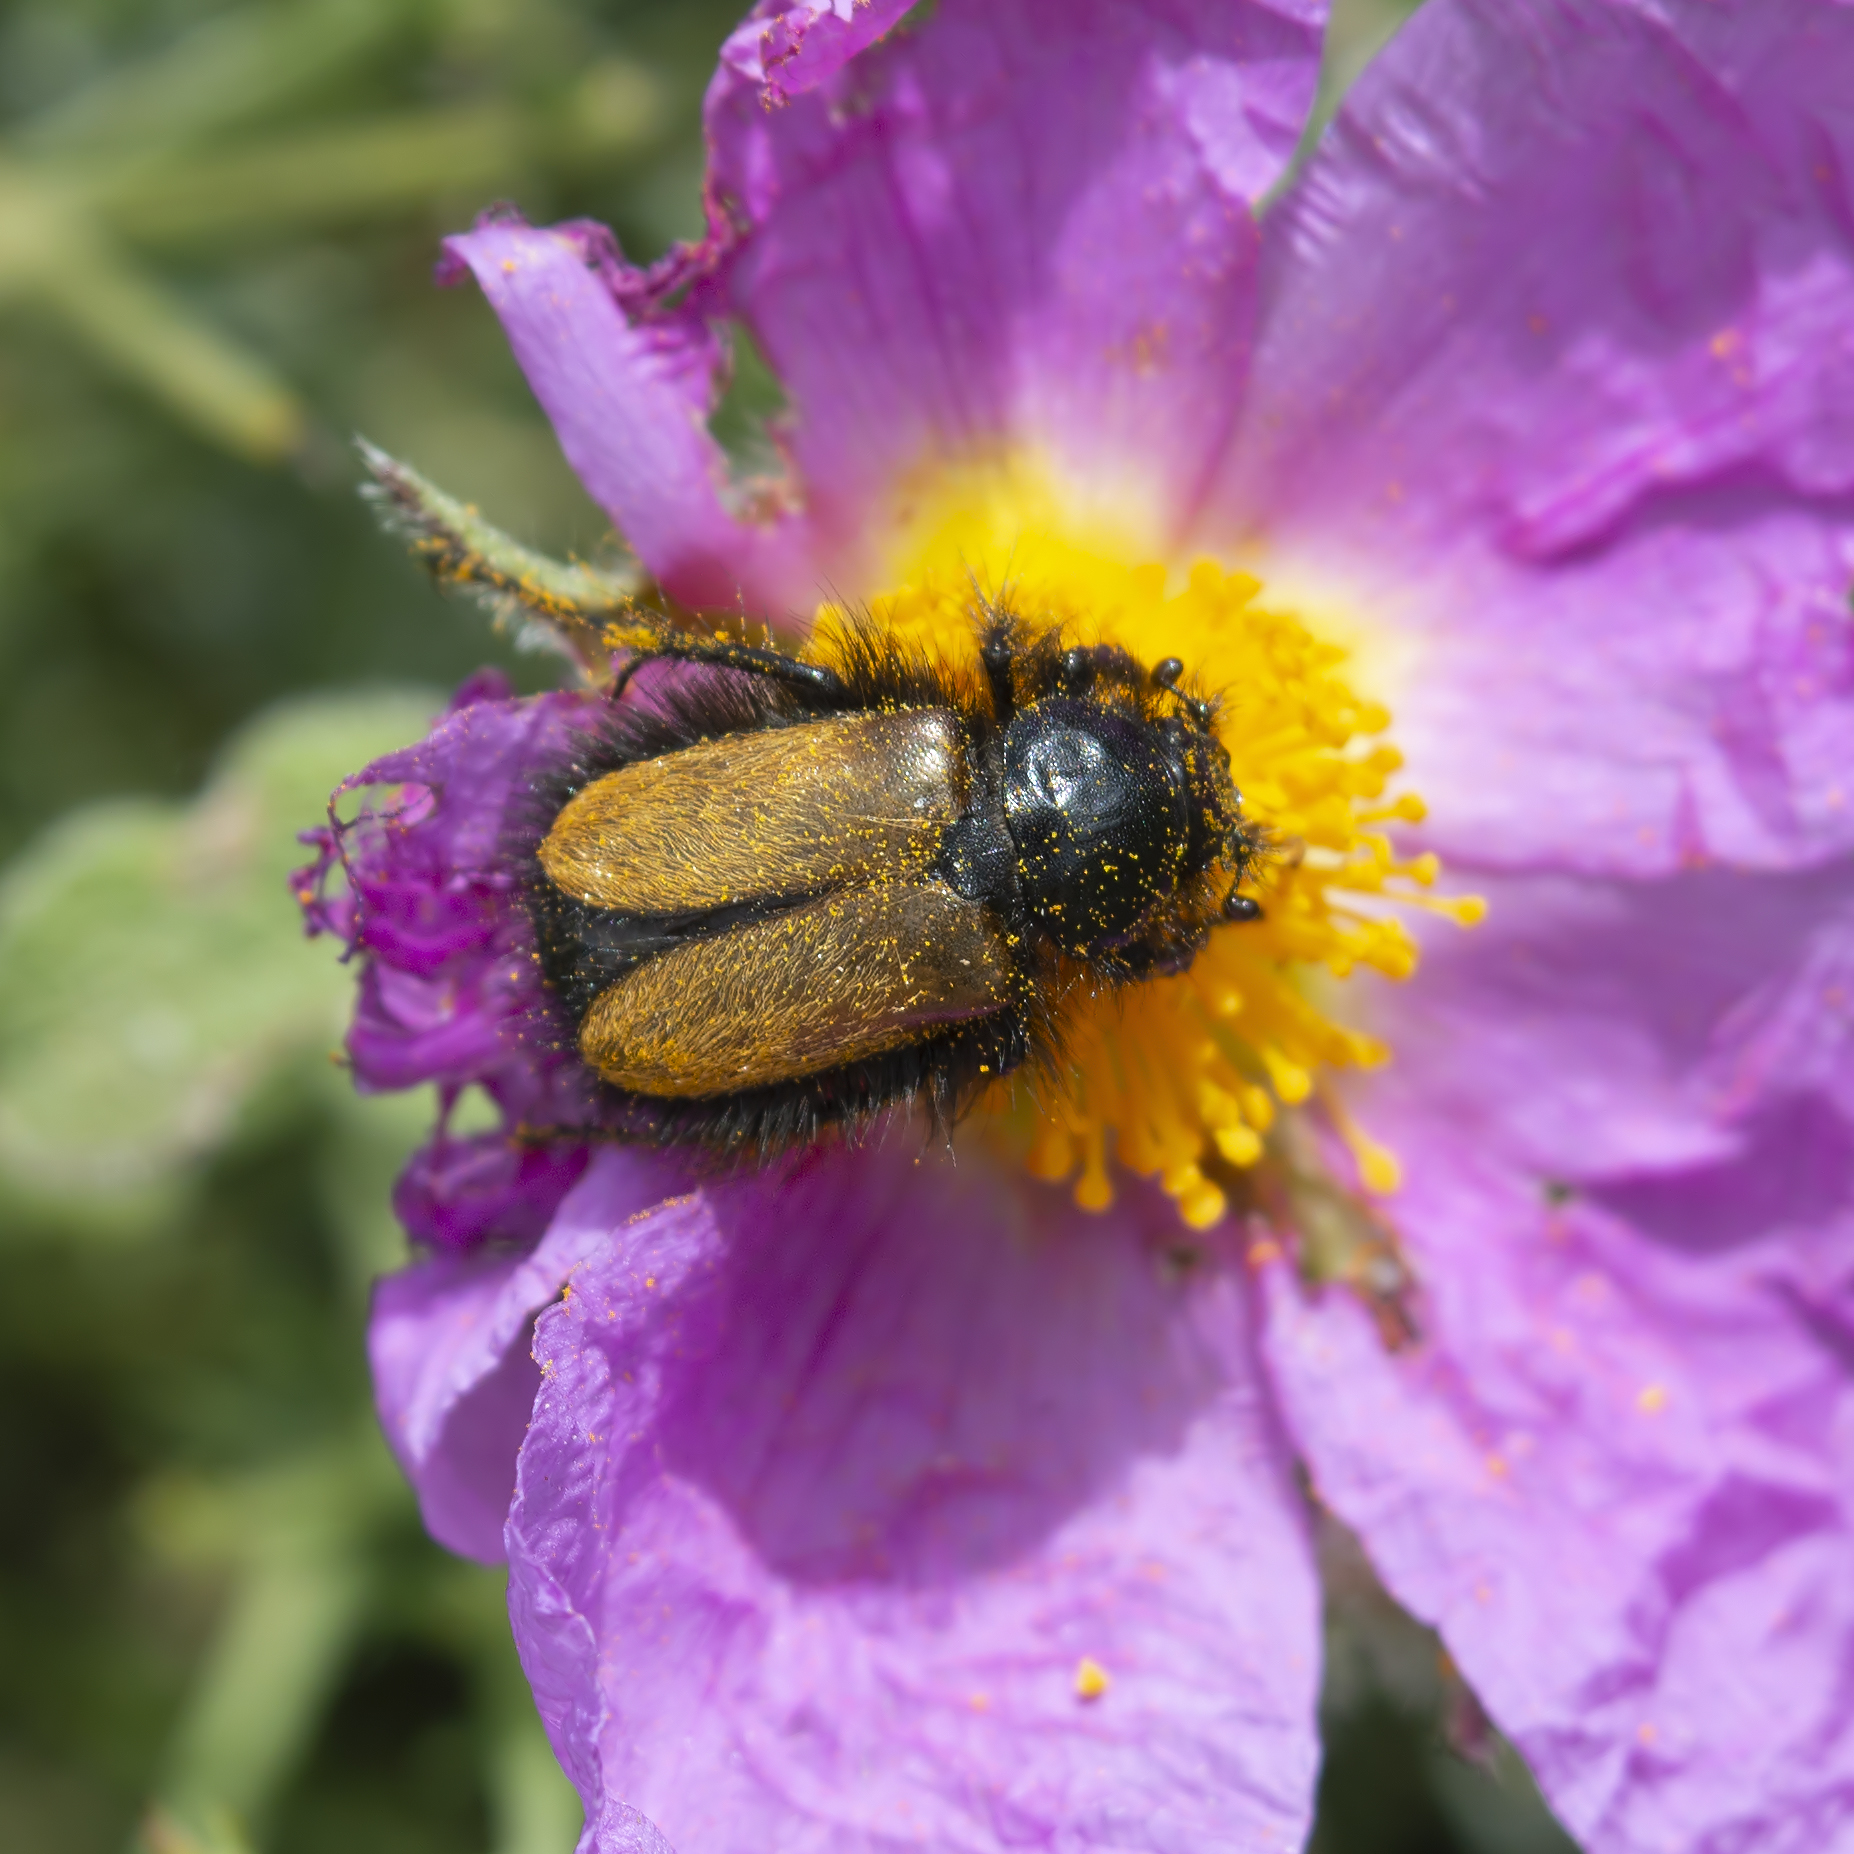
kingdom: Animalia
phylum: Arthropoda
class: Insecta
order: Coleoptera
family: Glaphyridae
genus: Eulasia
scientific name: Eulasia bombyliformis
